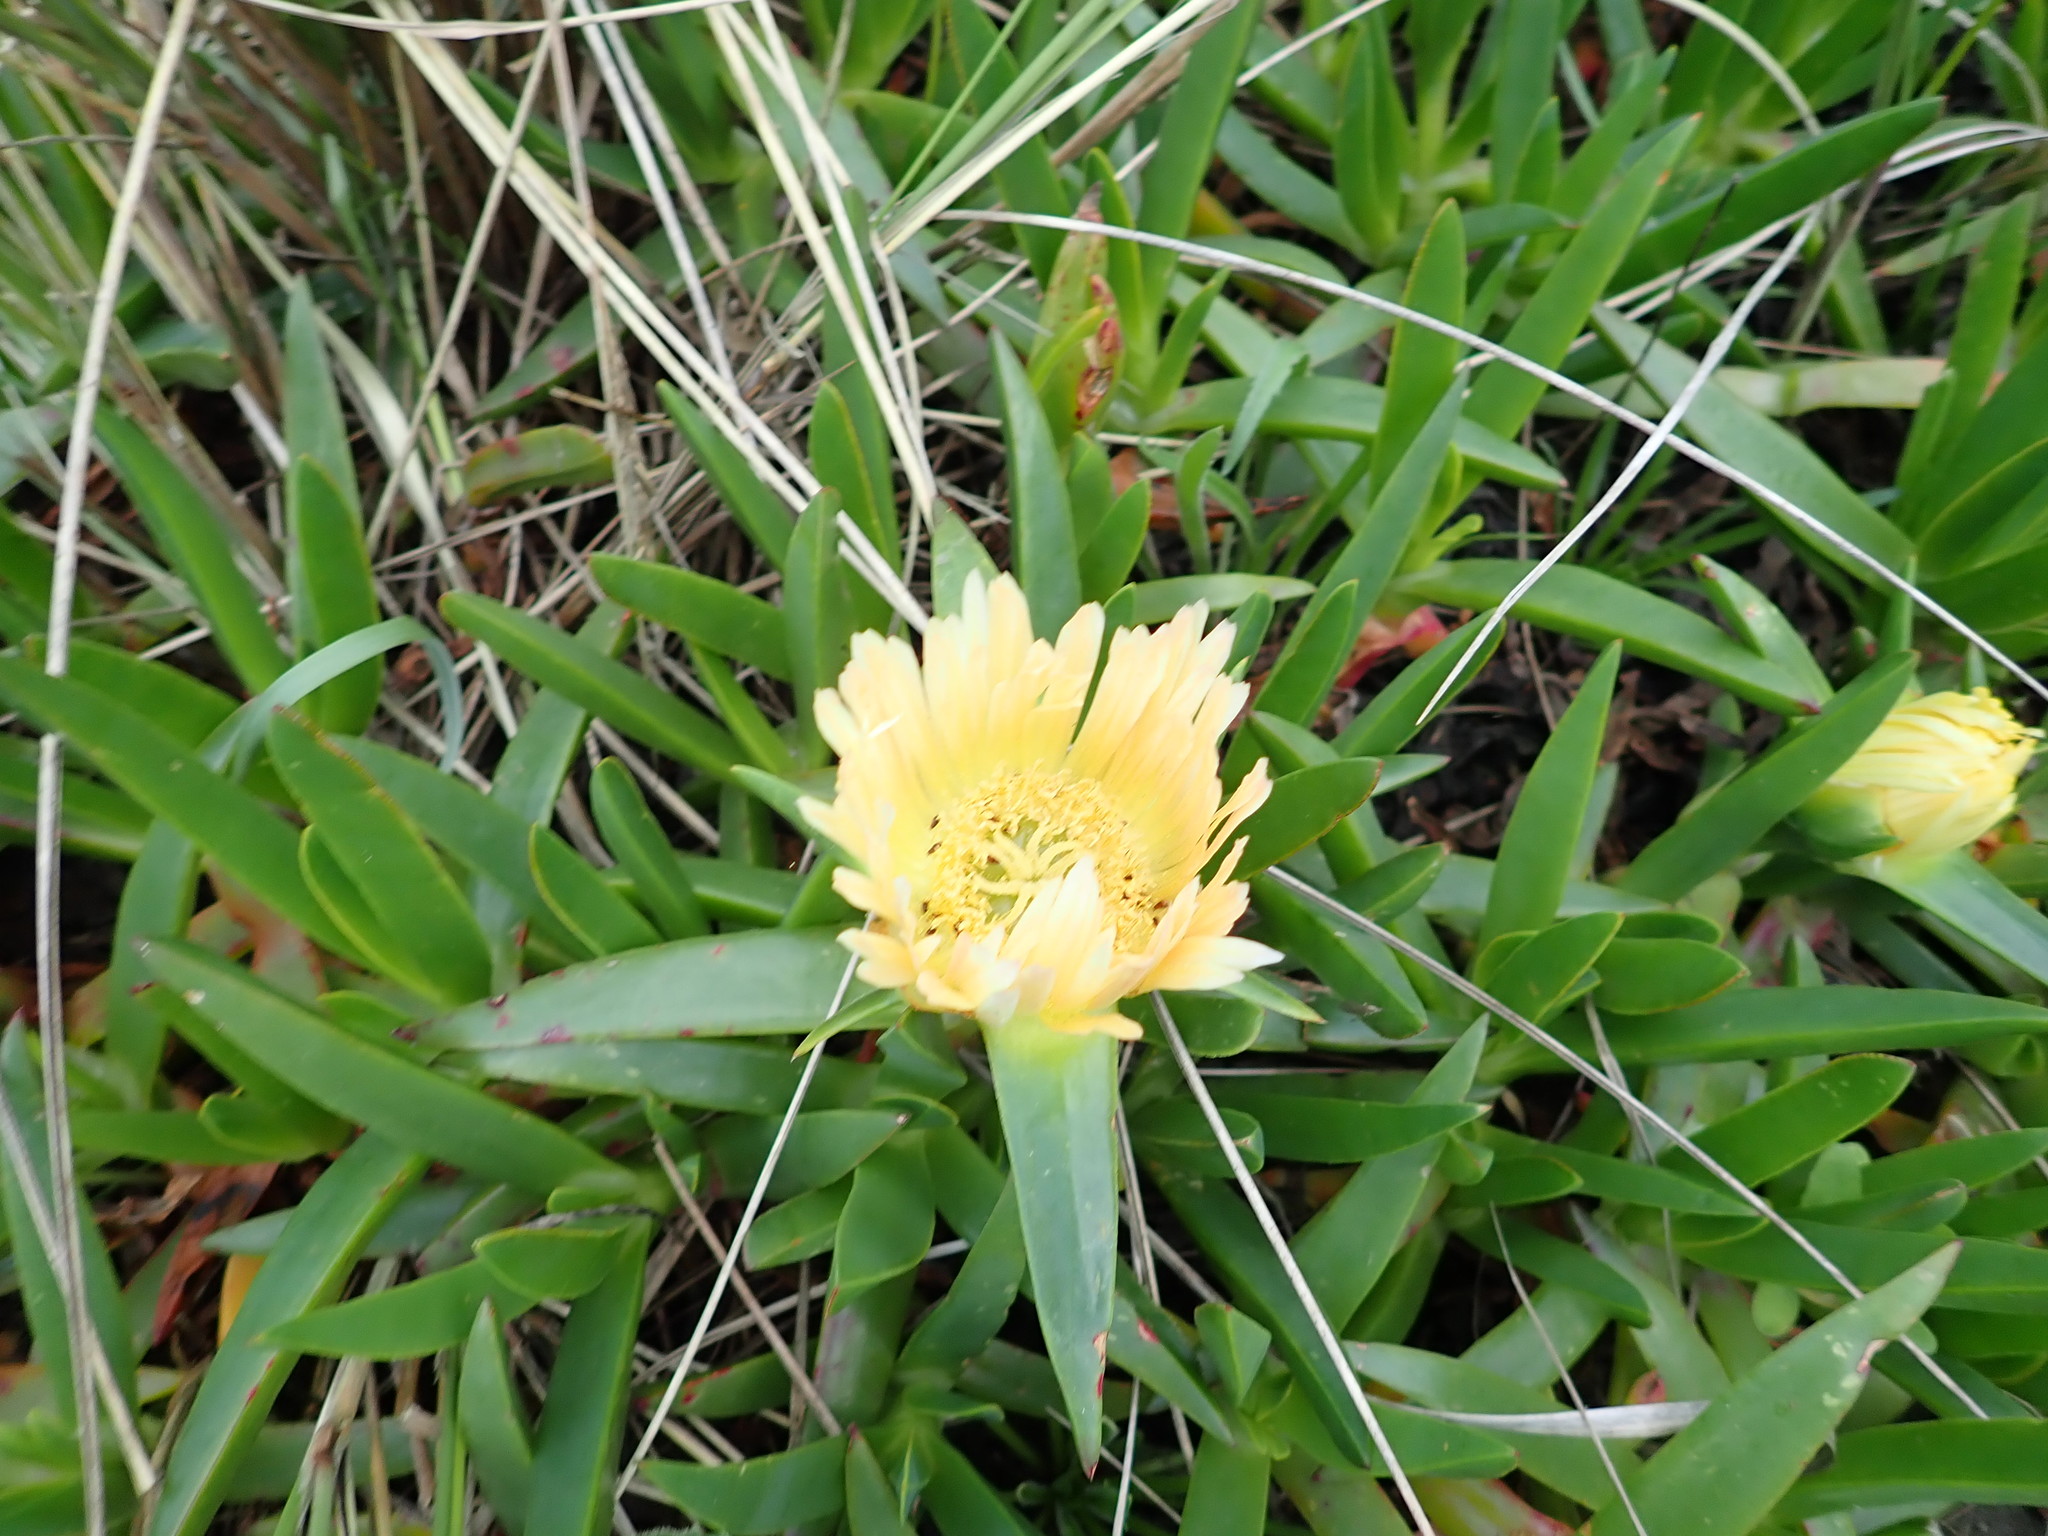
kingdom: Plantae
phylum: Tracheophyta
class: Magnoliopsida
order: Caryophyllales
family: Aizoaceae
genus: Carpobrotus
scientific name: Carpobrotus edulis
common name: Hottentot-fig
